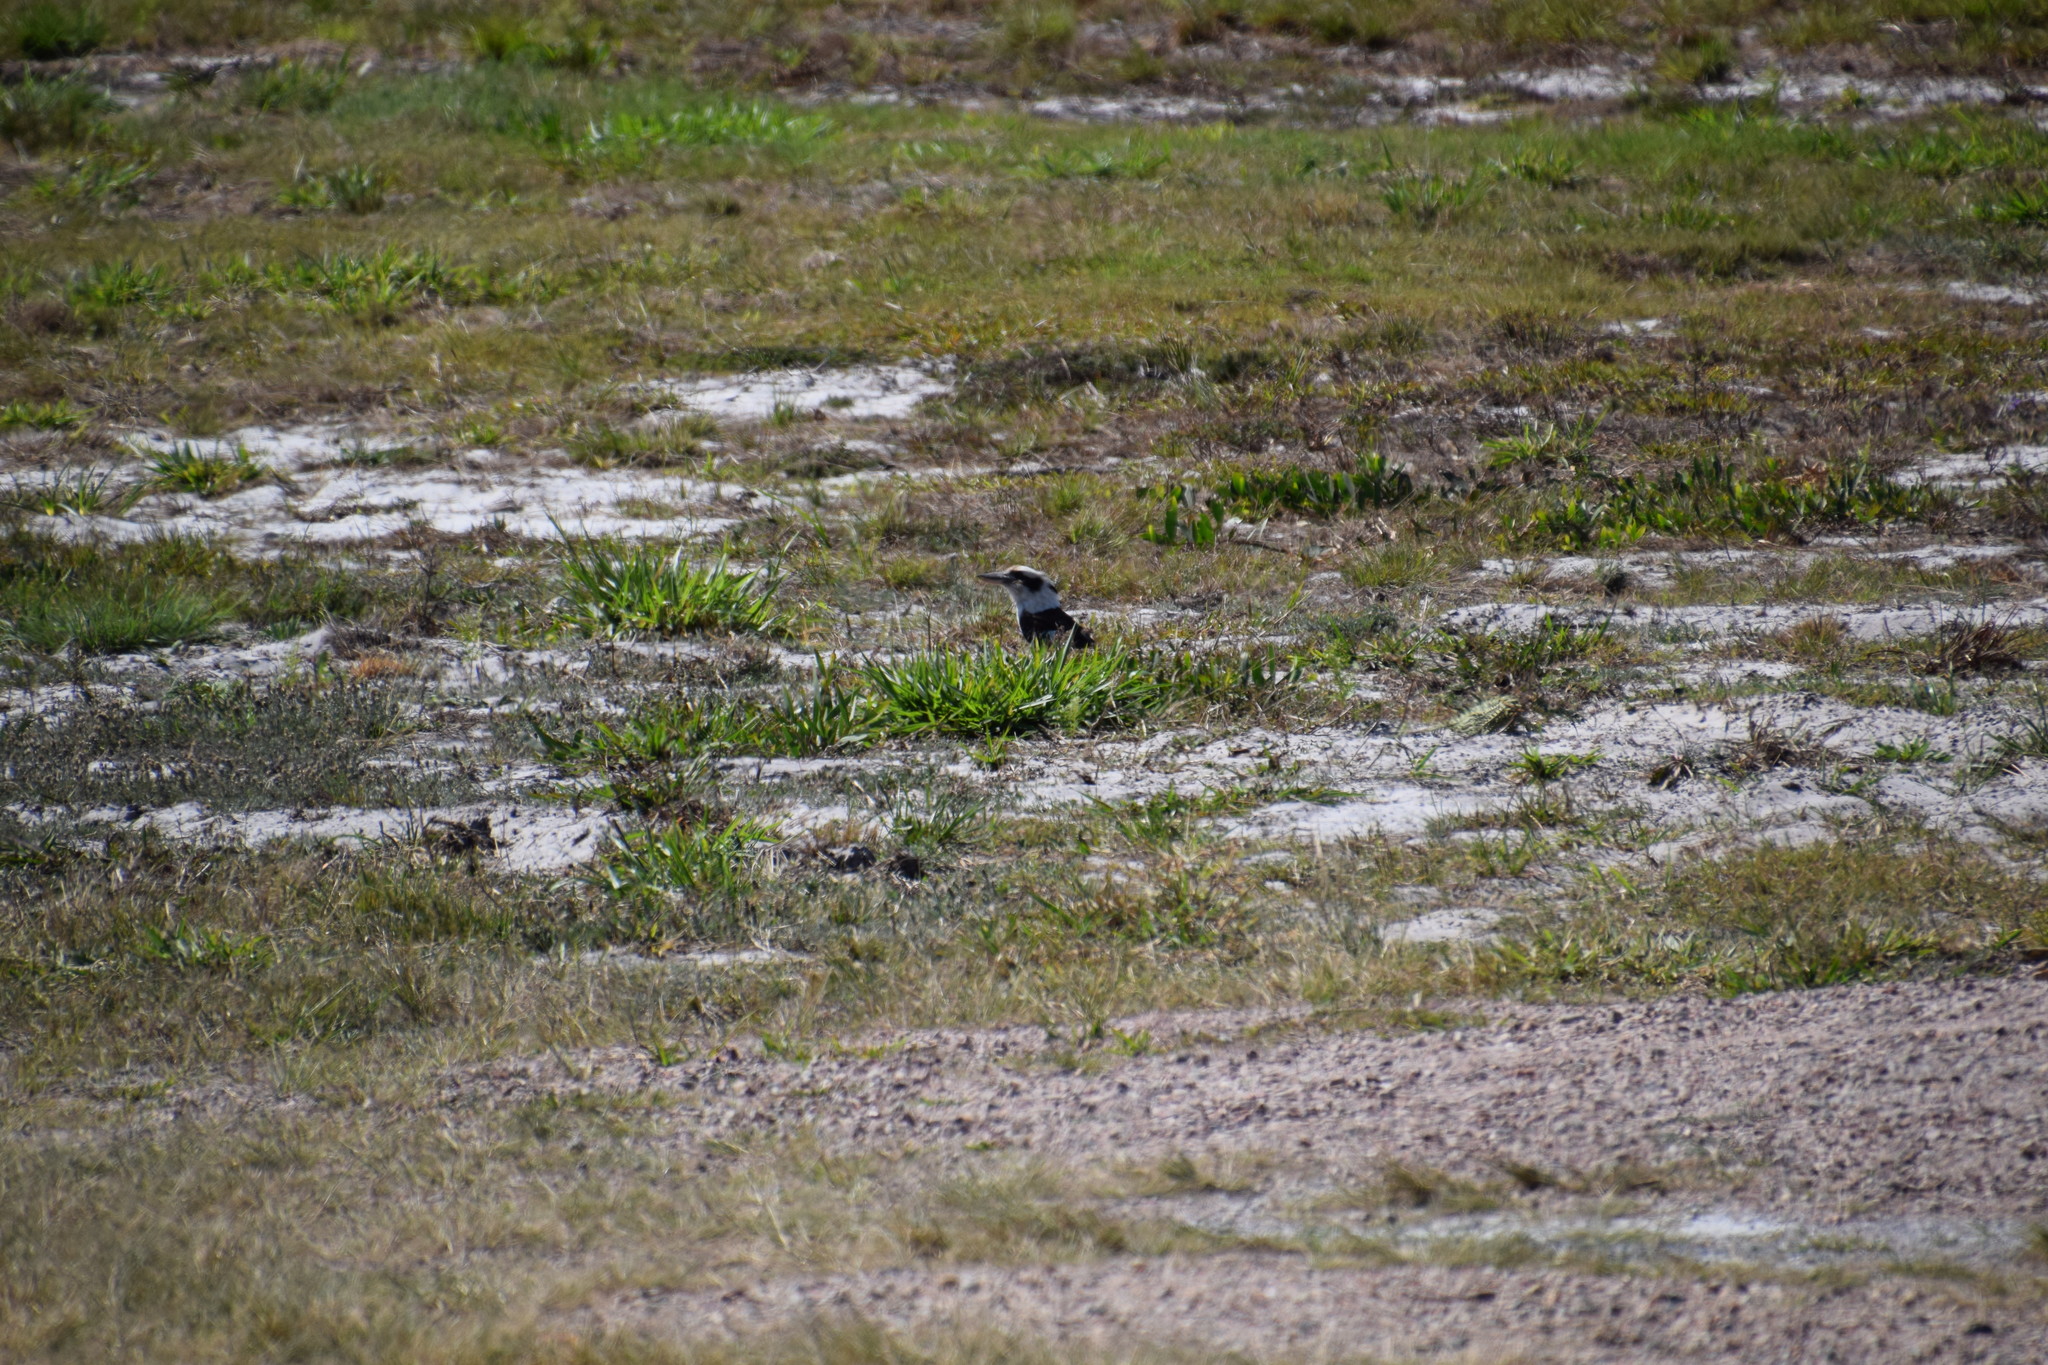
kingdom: Animalia
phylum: Chordata
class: Aves
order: Coraciiformes
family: Alcedinidae
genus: Dacelo
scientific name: Dacelo novaeguineae
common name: Laughing kookaburra
